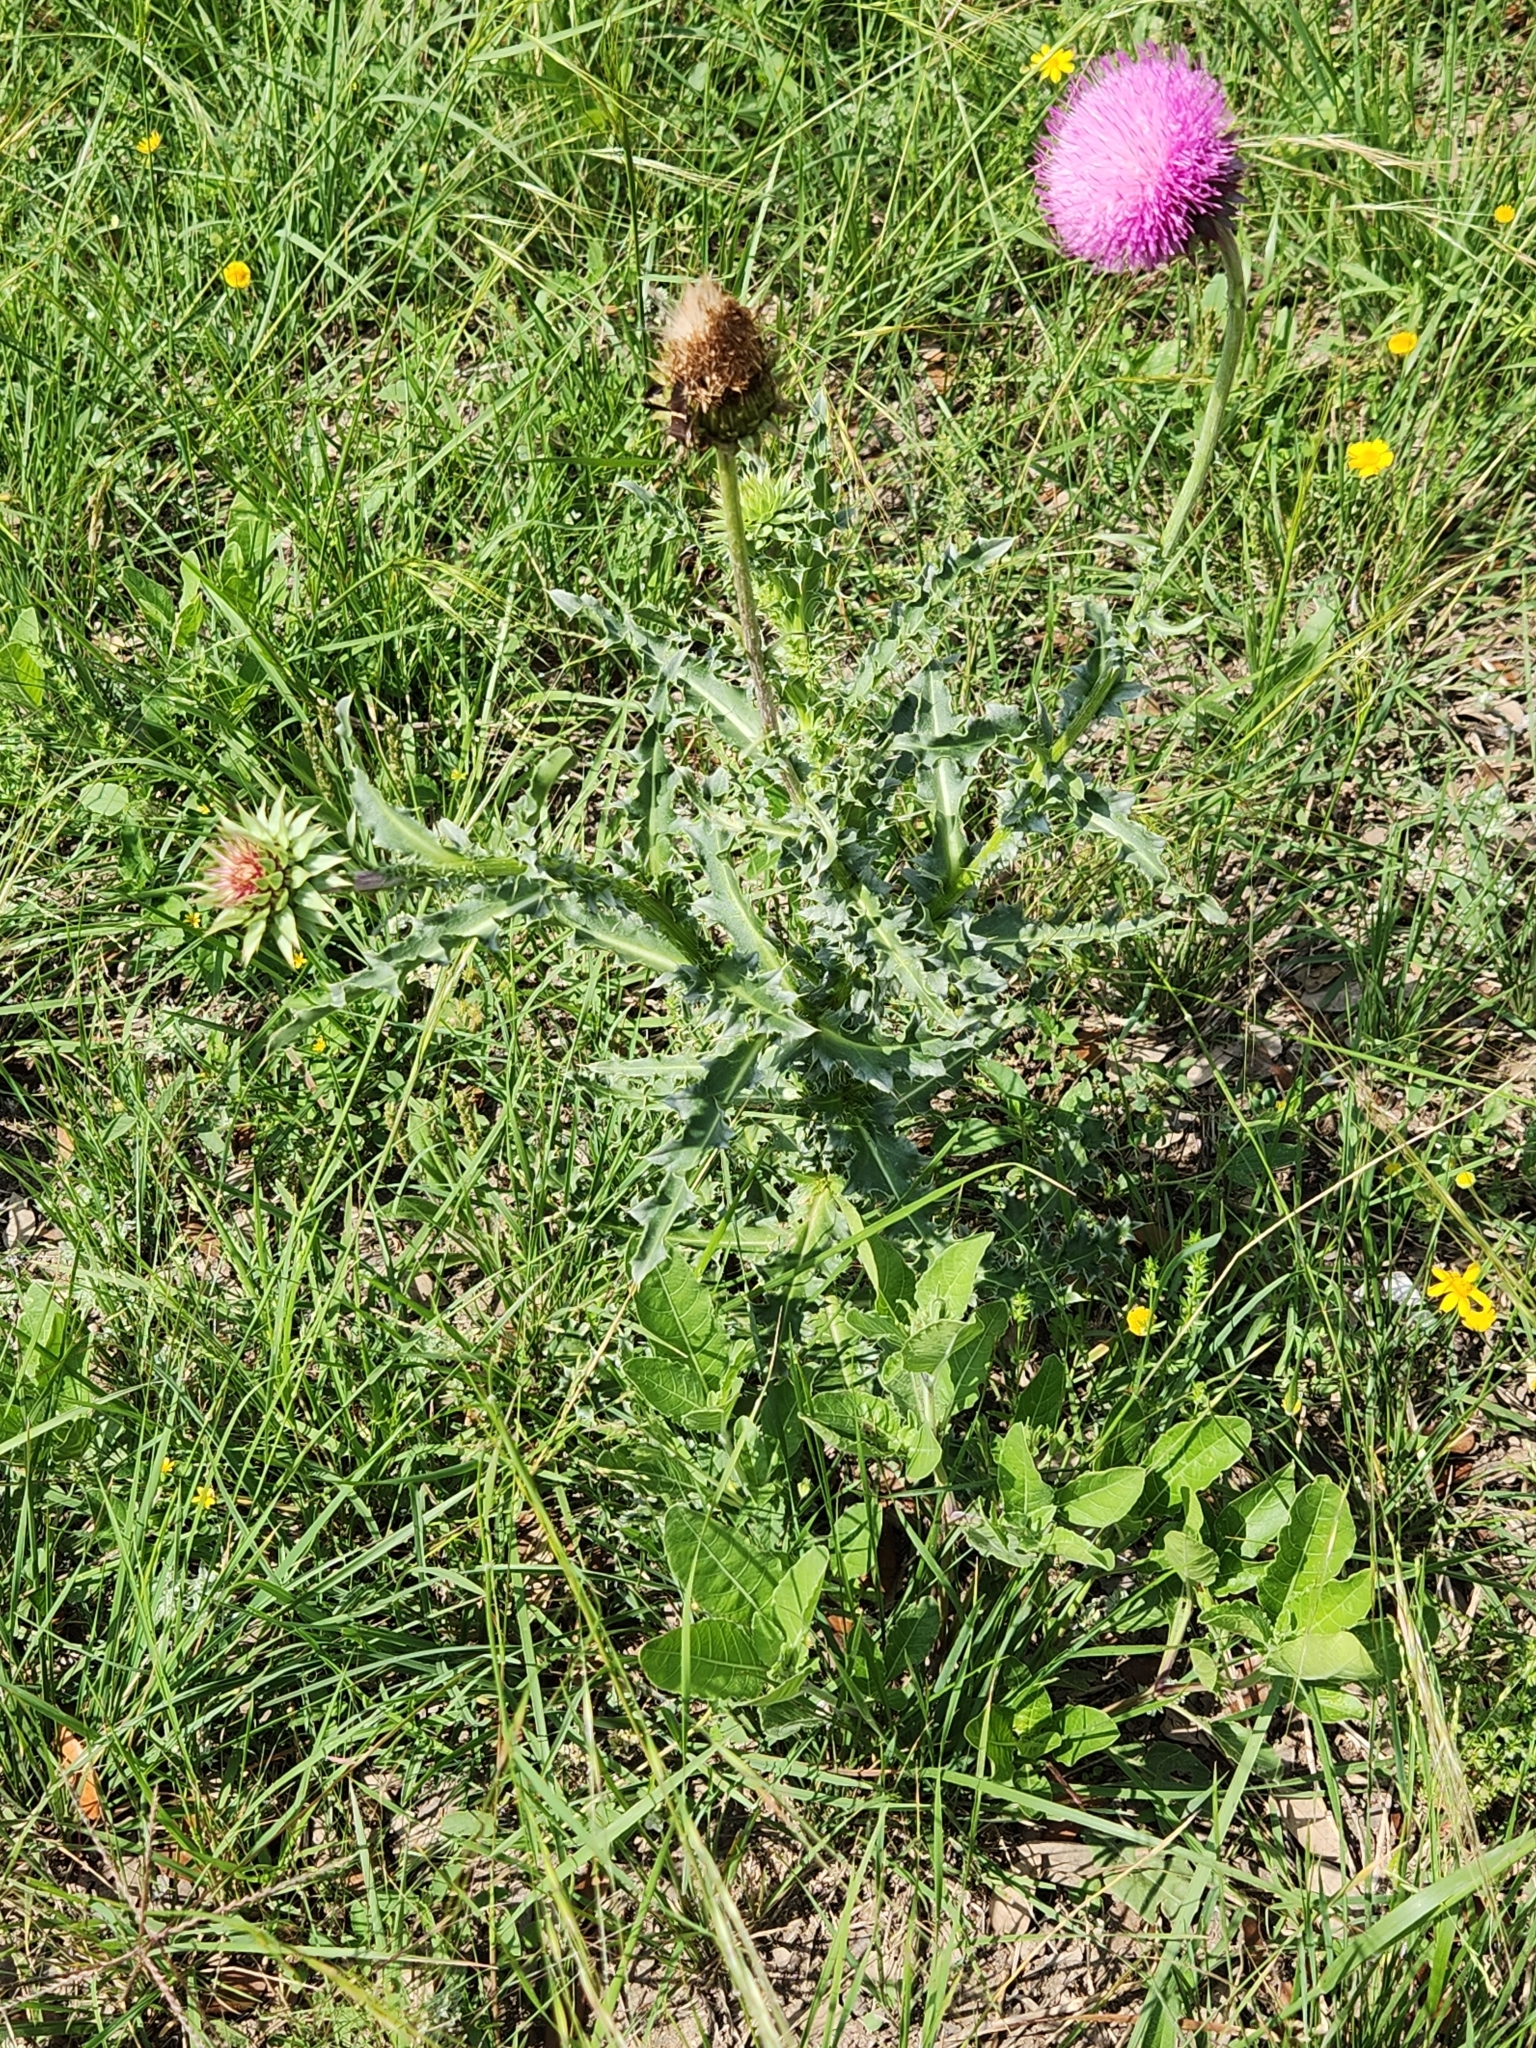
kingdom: Plantae
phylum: Tracheophyta
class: Magnoliopsida
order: Asterales
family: Asteraceae
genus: Carduus
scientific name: Carduus nutans
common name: Musk thistle
